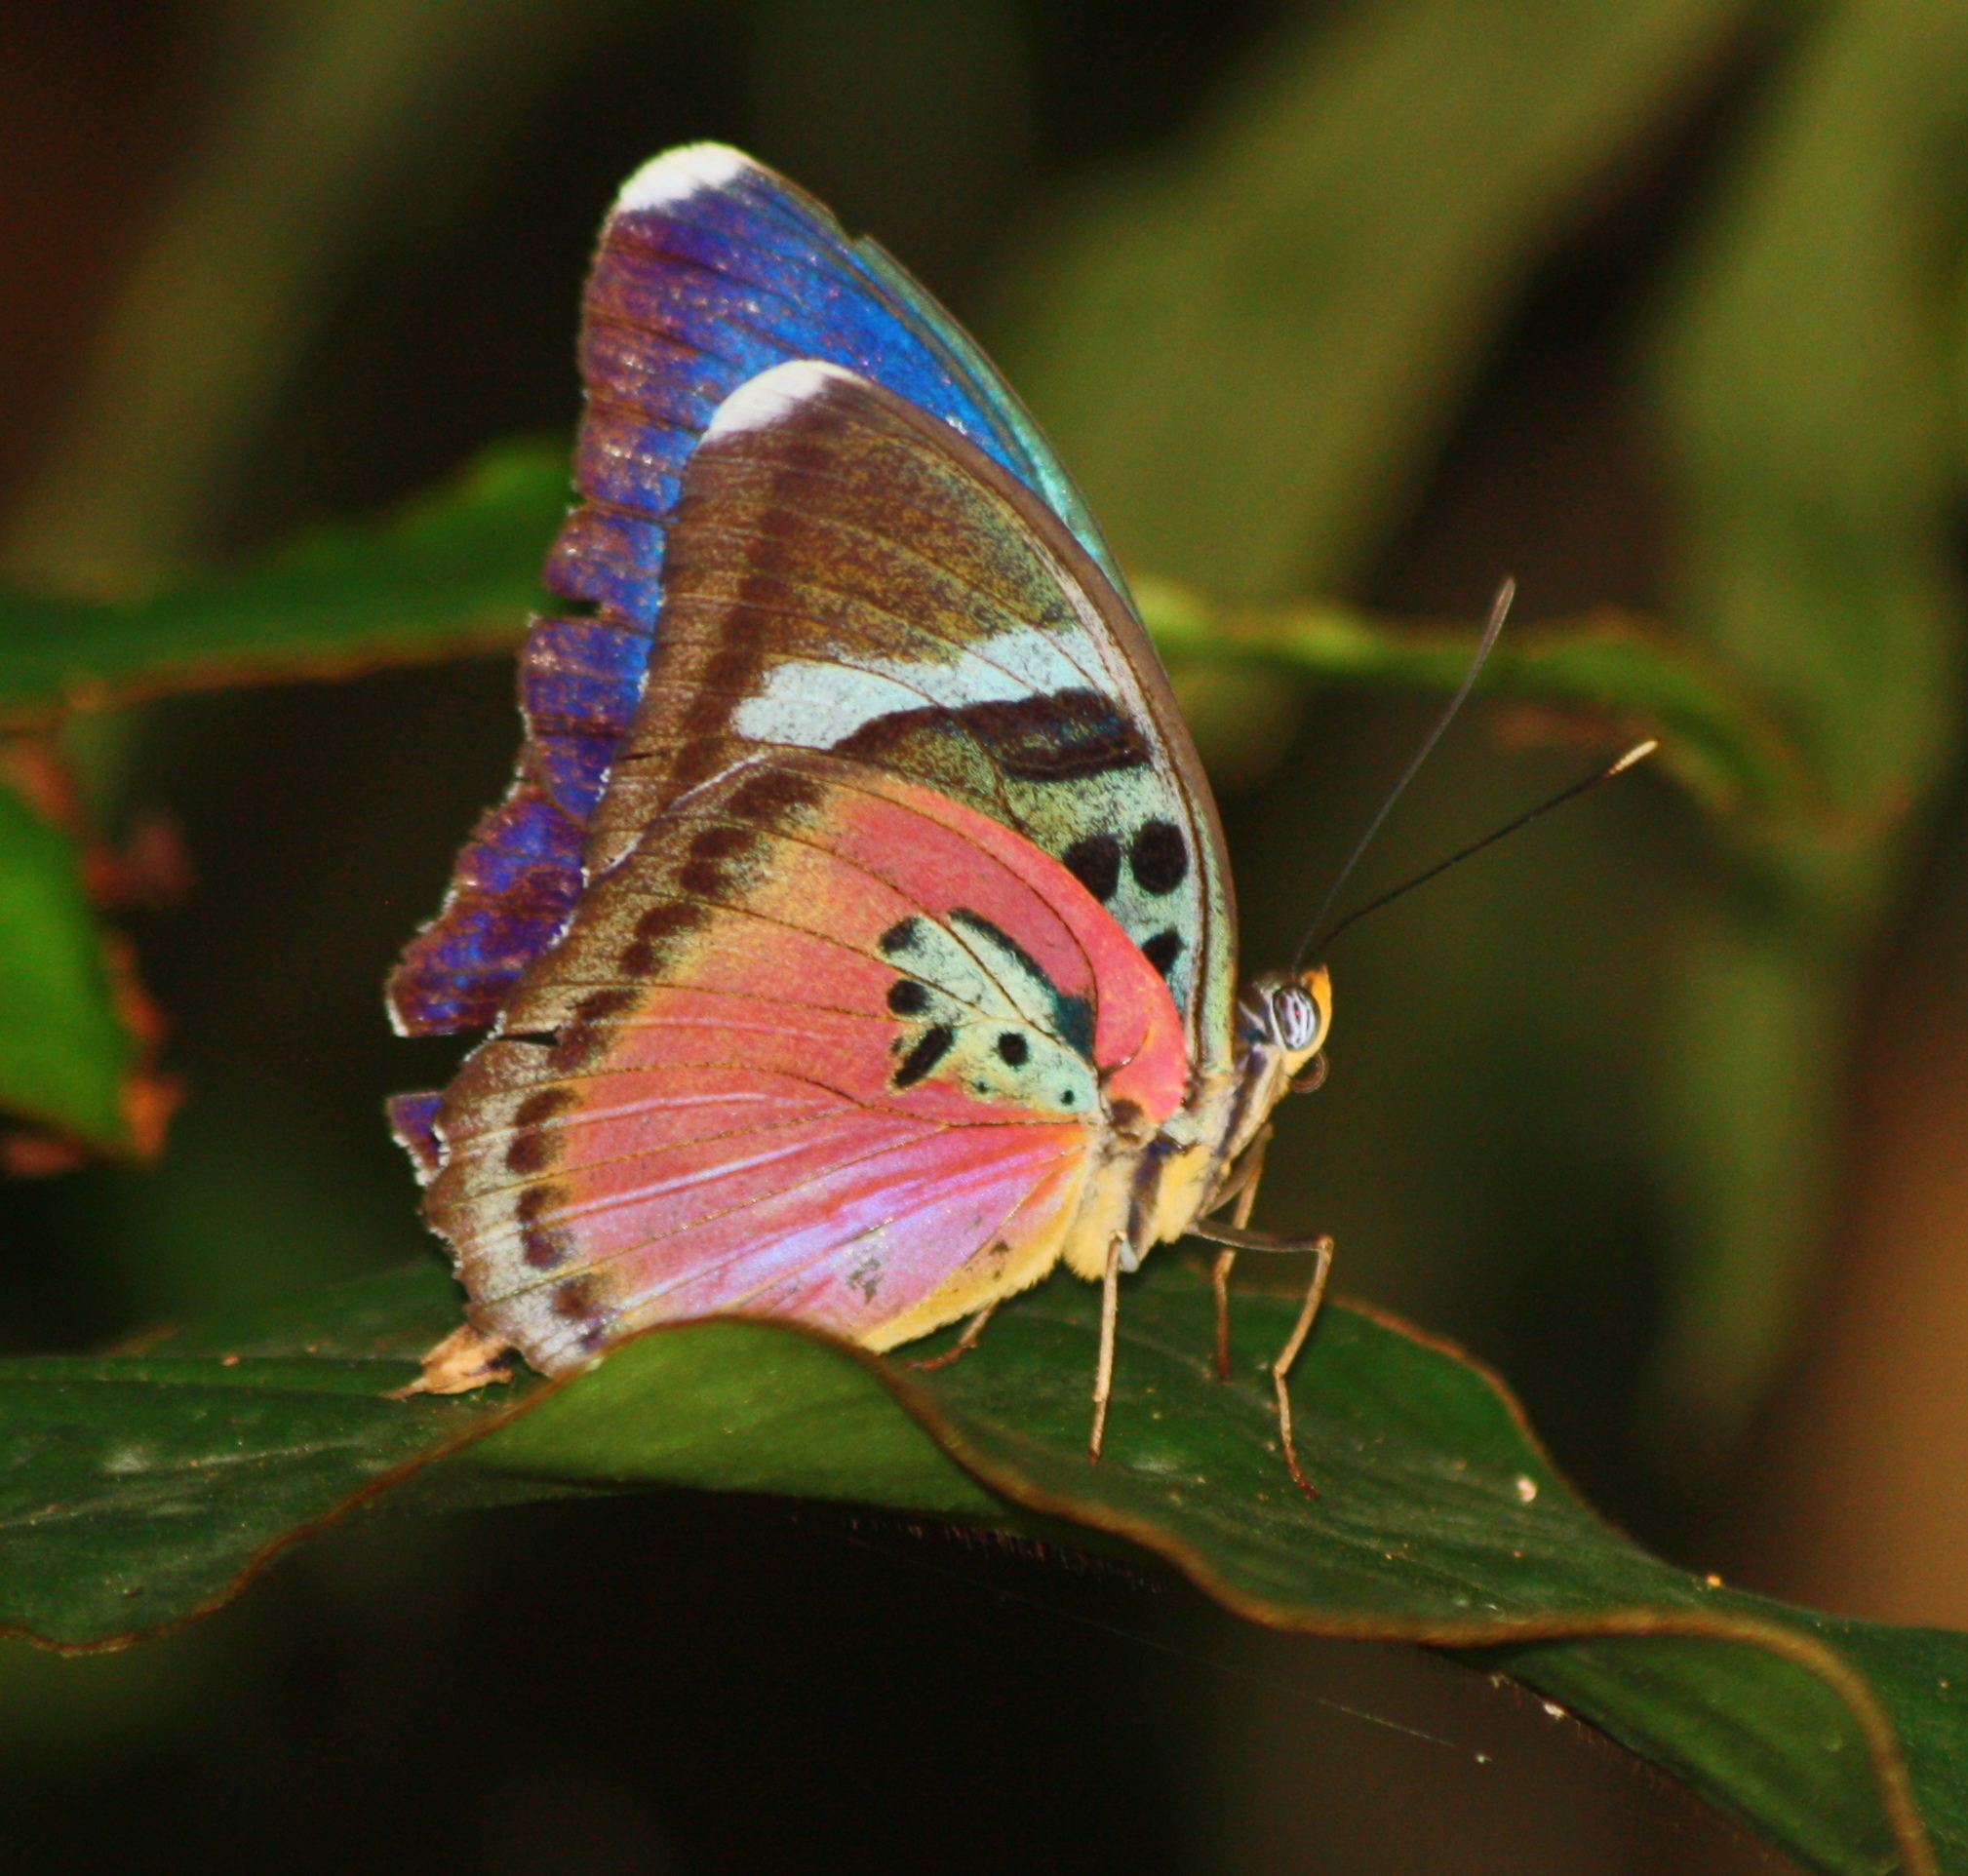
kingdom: Animalia
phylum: Arthropoda
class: Insecta
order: Lepidoptera
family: Nymphalidae
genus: Euphaedra
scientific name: Euphaedra xypete
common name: Common pink forester
